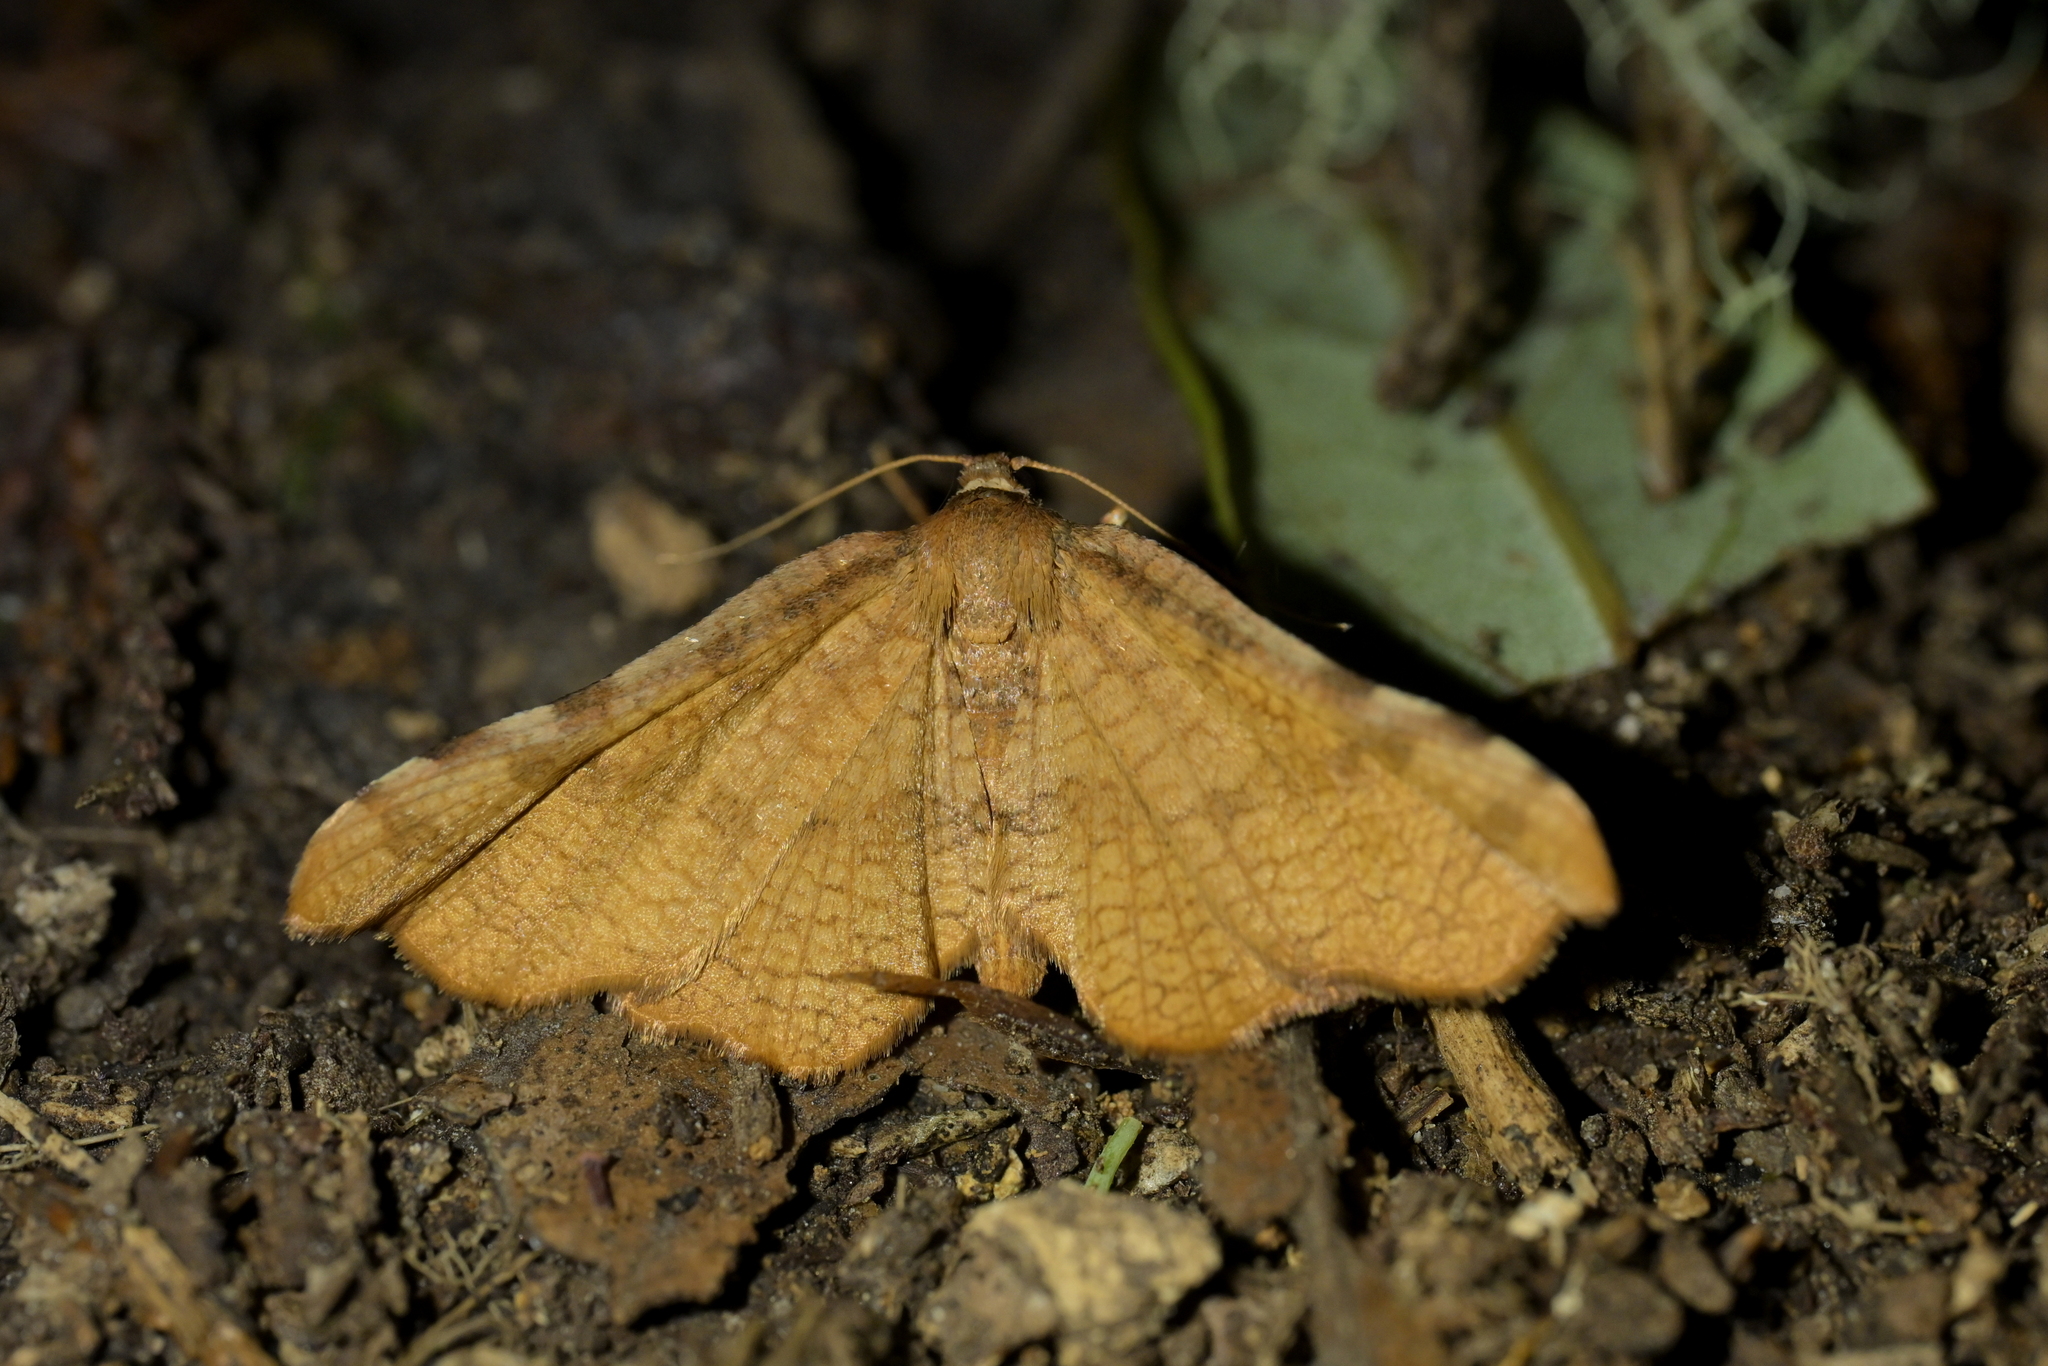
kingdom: Animalia
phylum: Arthropoda
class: Insecta
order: Lepidoptera
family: Thyrididae
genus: Morova
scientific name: Morova subfasciata
